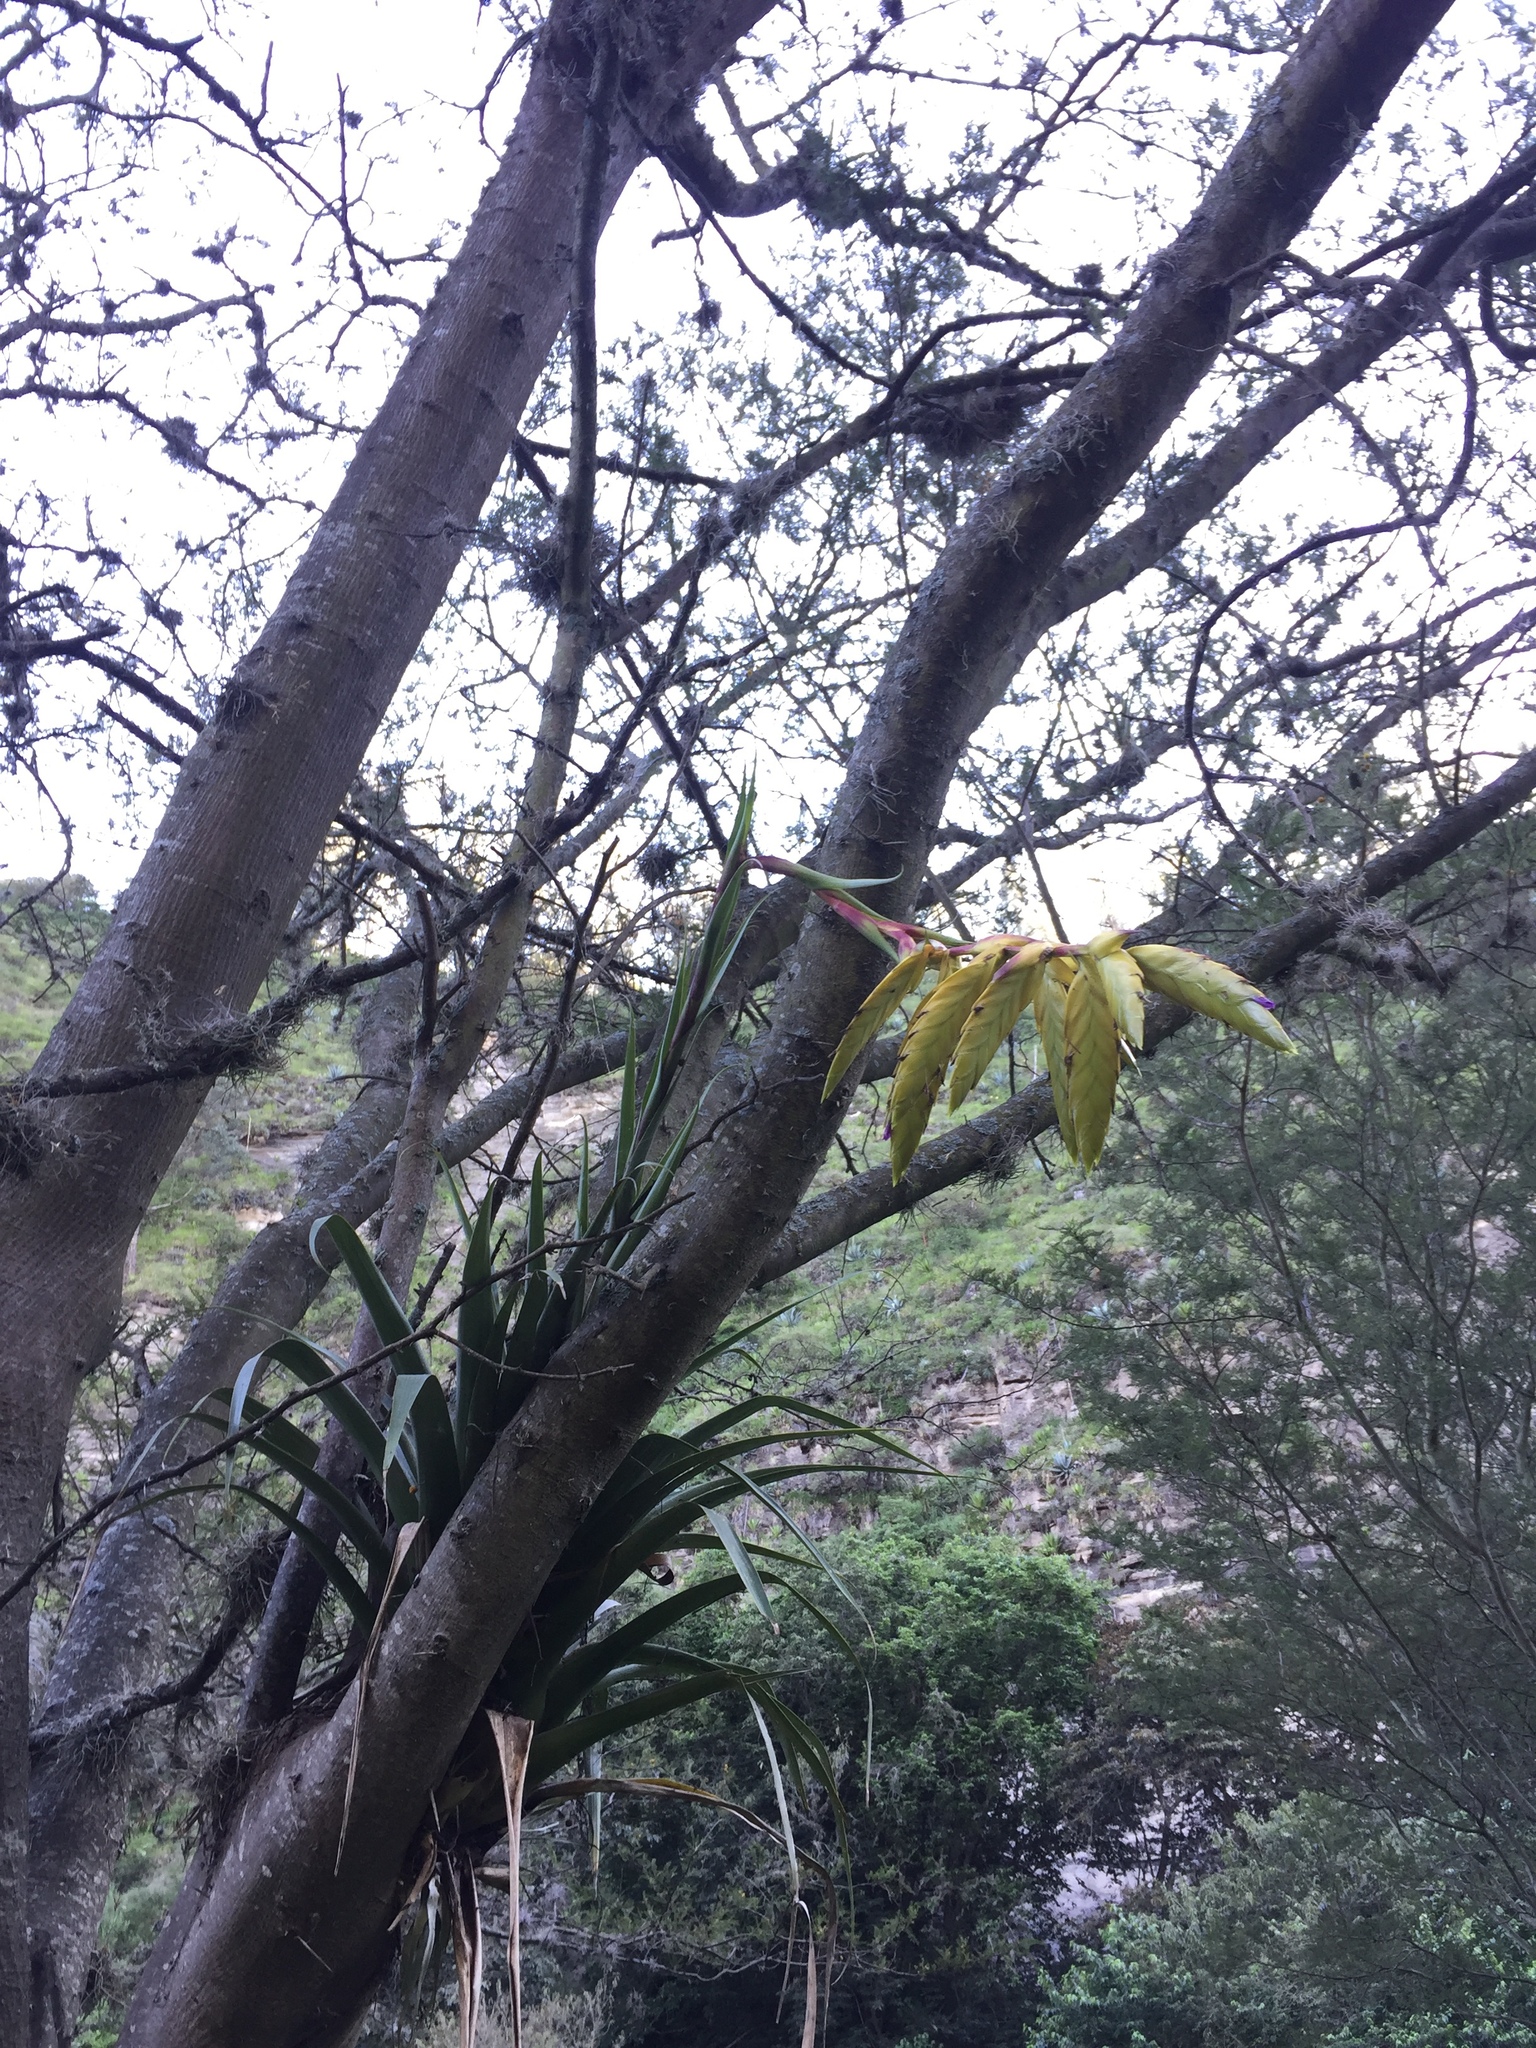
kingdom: Plantae
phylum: Tracheophyta
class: Liliopsida
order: Poales
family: Bromeliaceae
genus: Tillandsia
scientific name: Tillandsia lajensis
